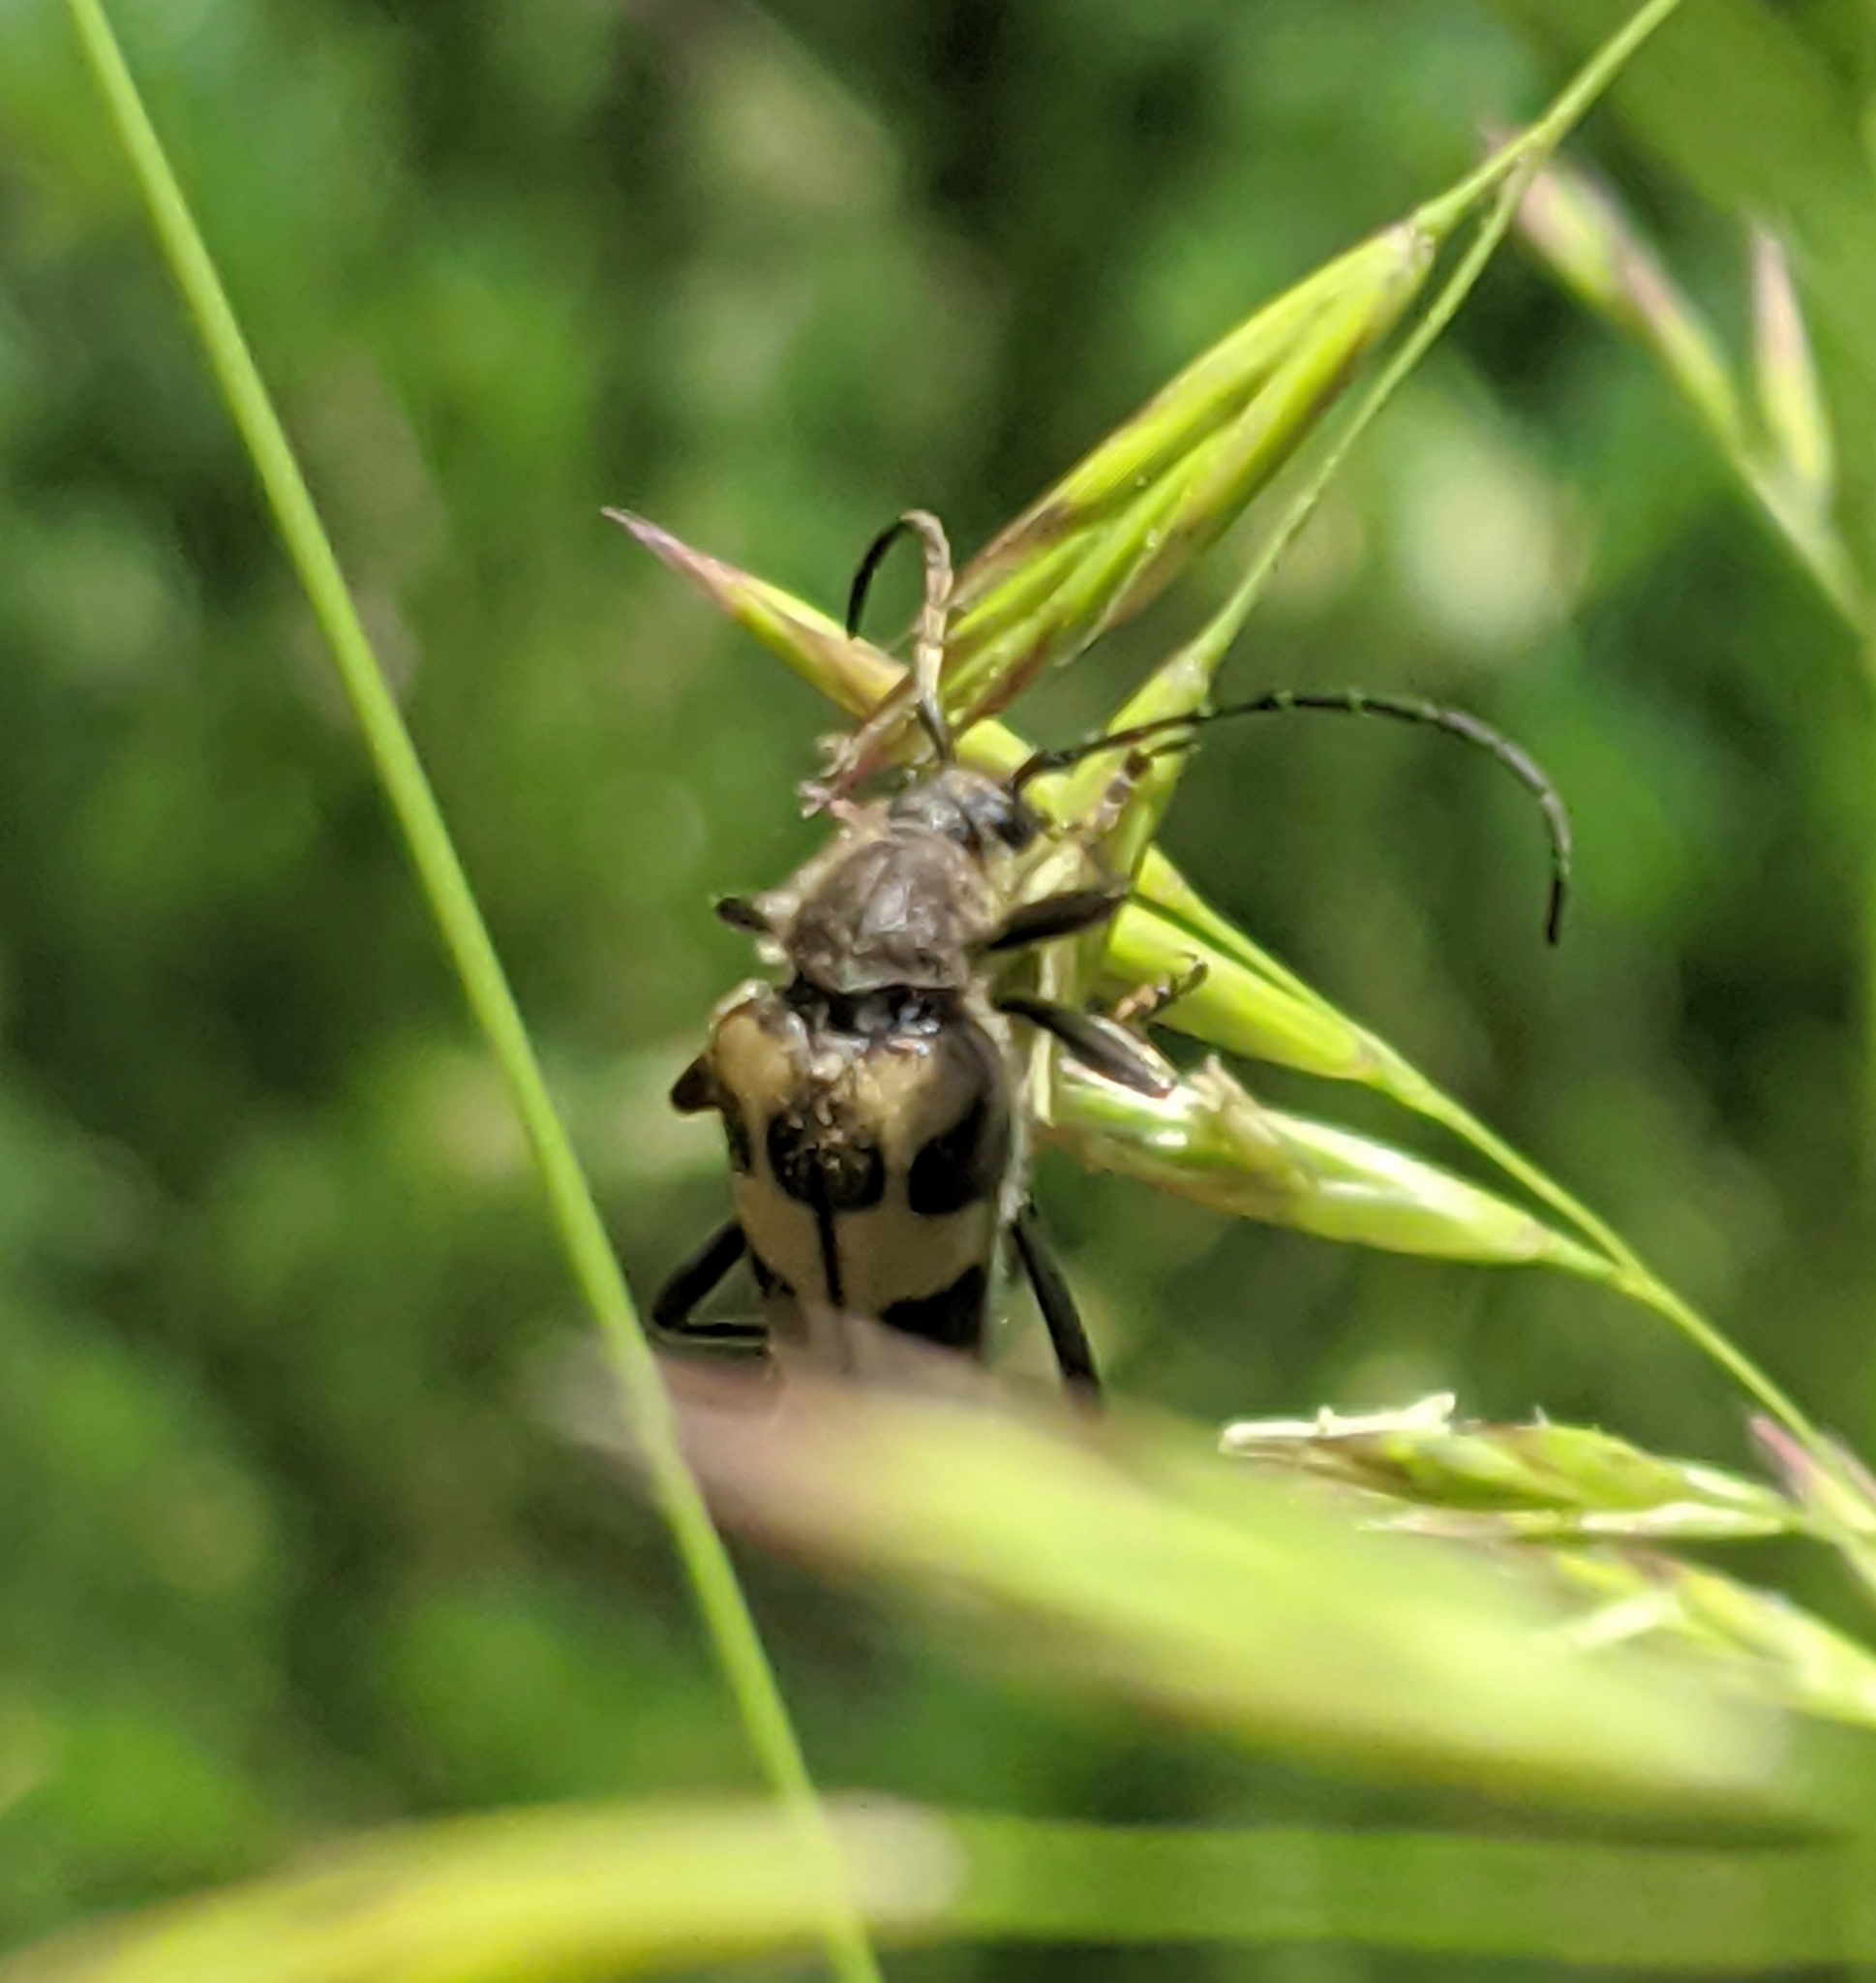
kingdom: Animalia
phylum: Arthropoda
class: Insecta
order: Coleoptera
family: Cerambycidae
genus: Judolia
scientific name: Judolia instabilis
